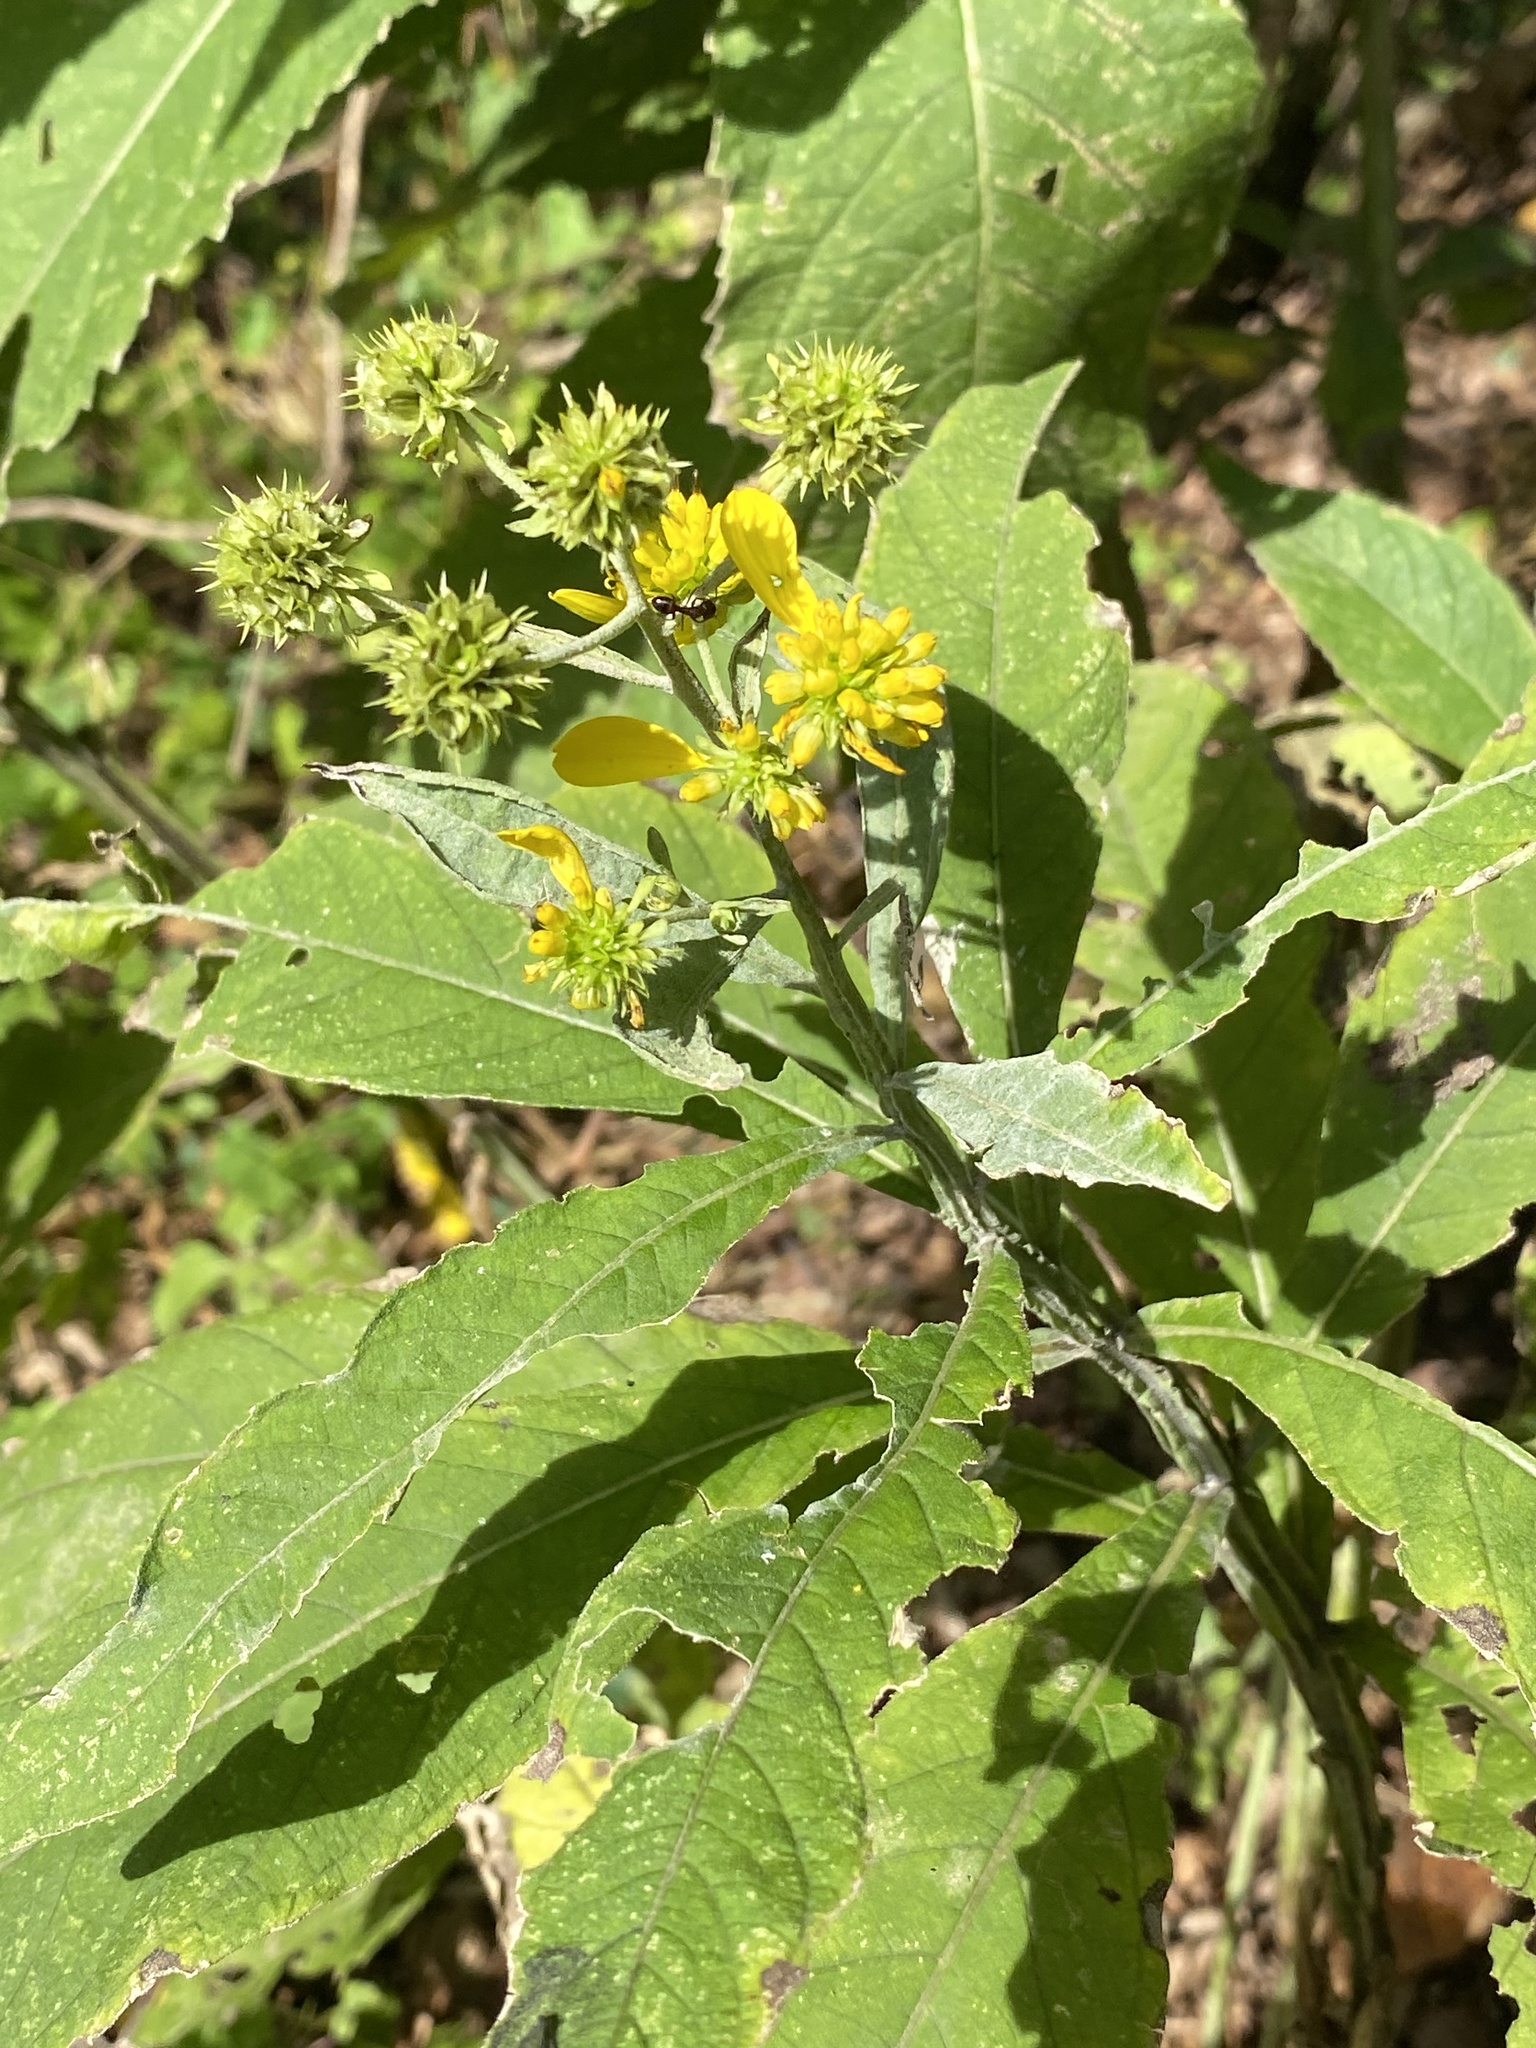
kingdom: Plantae
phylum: Tracheophyta
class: Magnoliopsida
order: Asterales
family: Asteraceae
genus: Verbesina
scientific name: Verbesina alternifolia
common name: Wingstem
